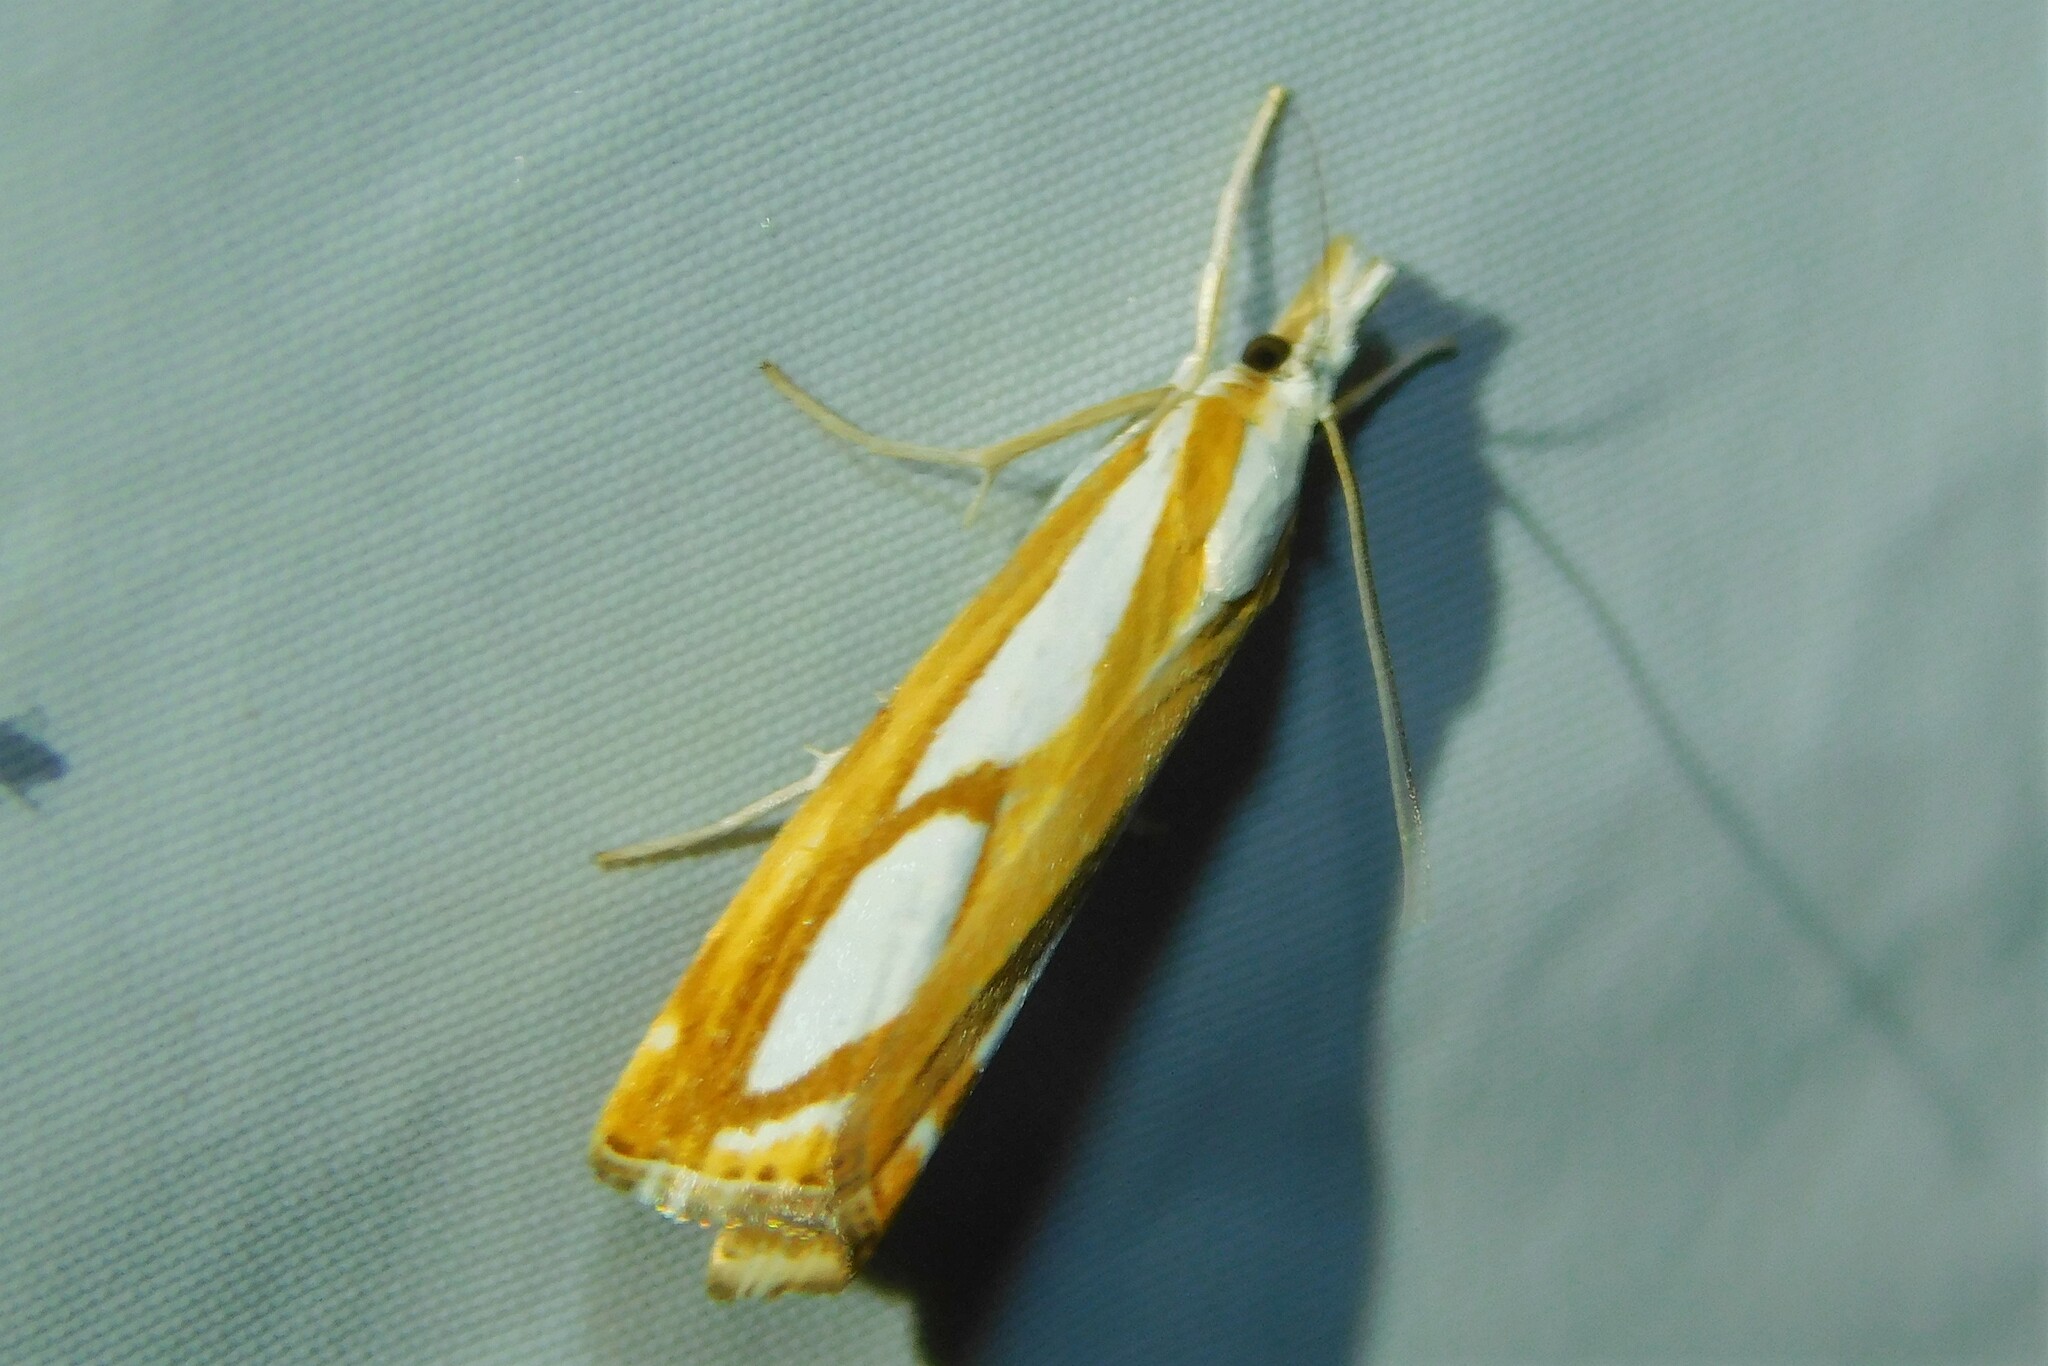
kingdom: Animalia
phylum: Arthropoda
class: Insecta
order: Lepidoptera
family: Crambidae
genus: Catoptria
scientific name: Catoptria
